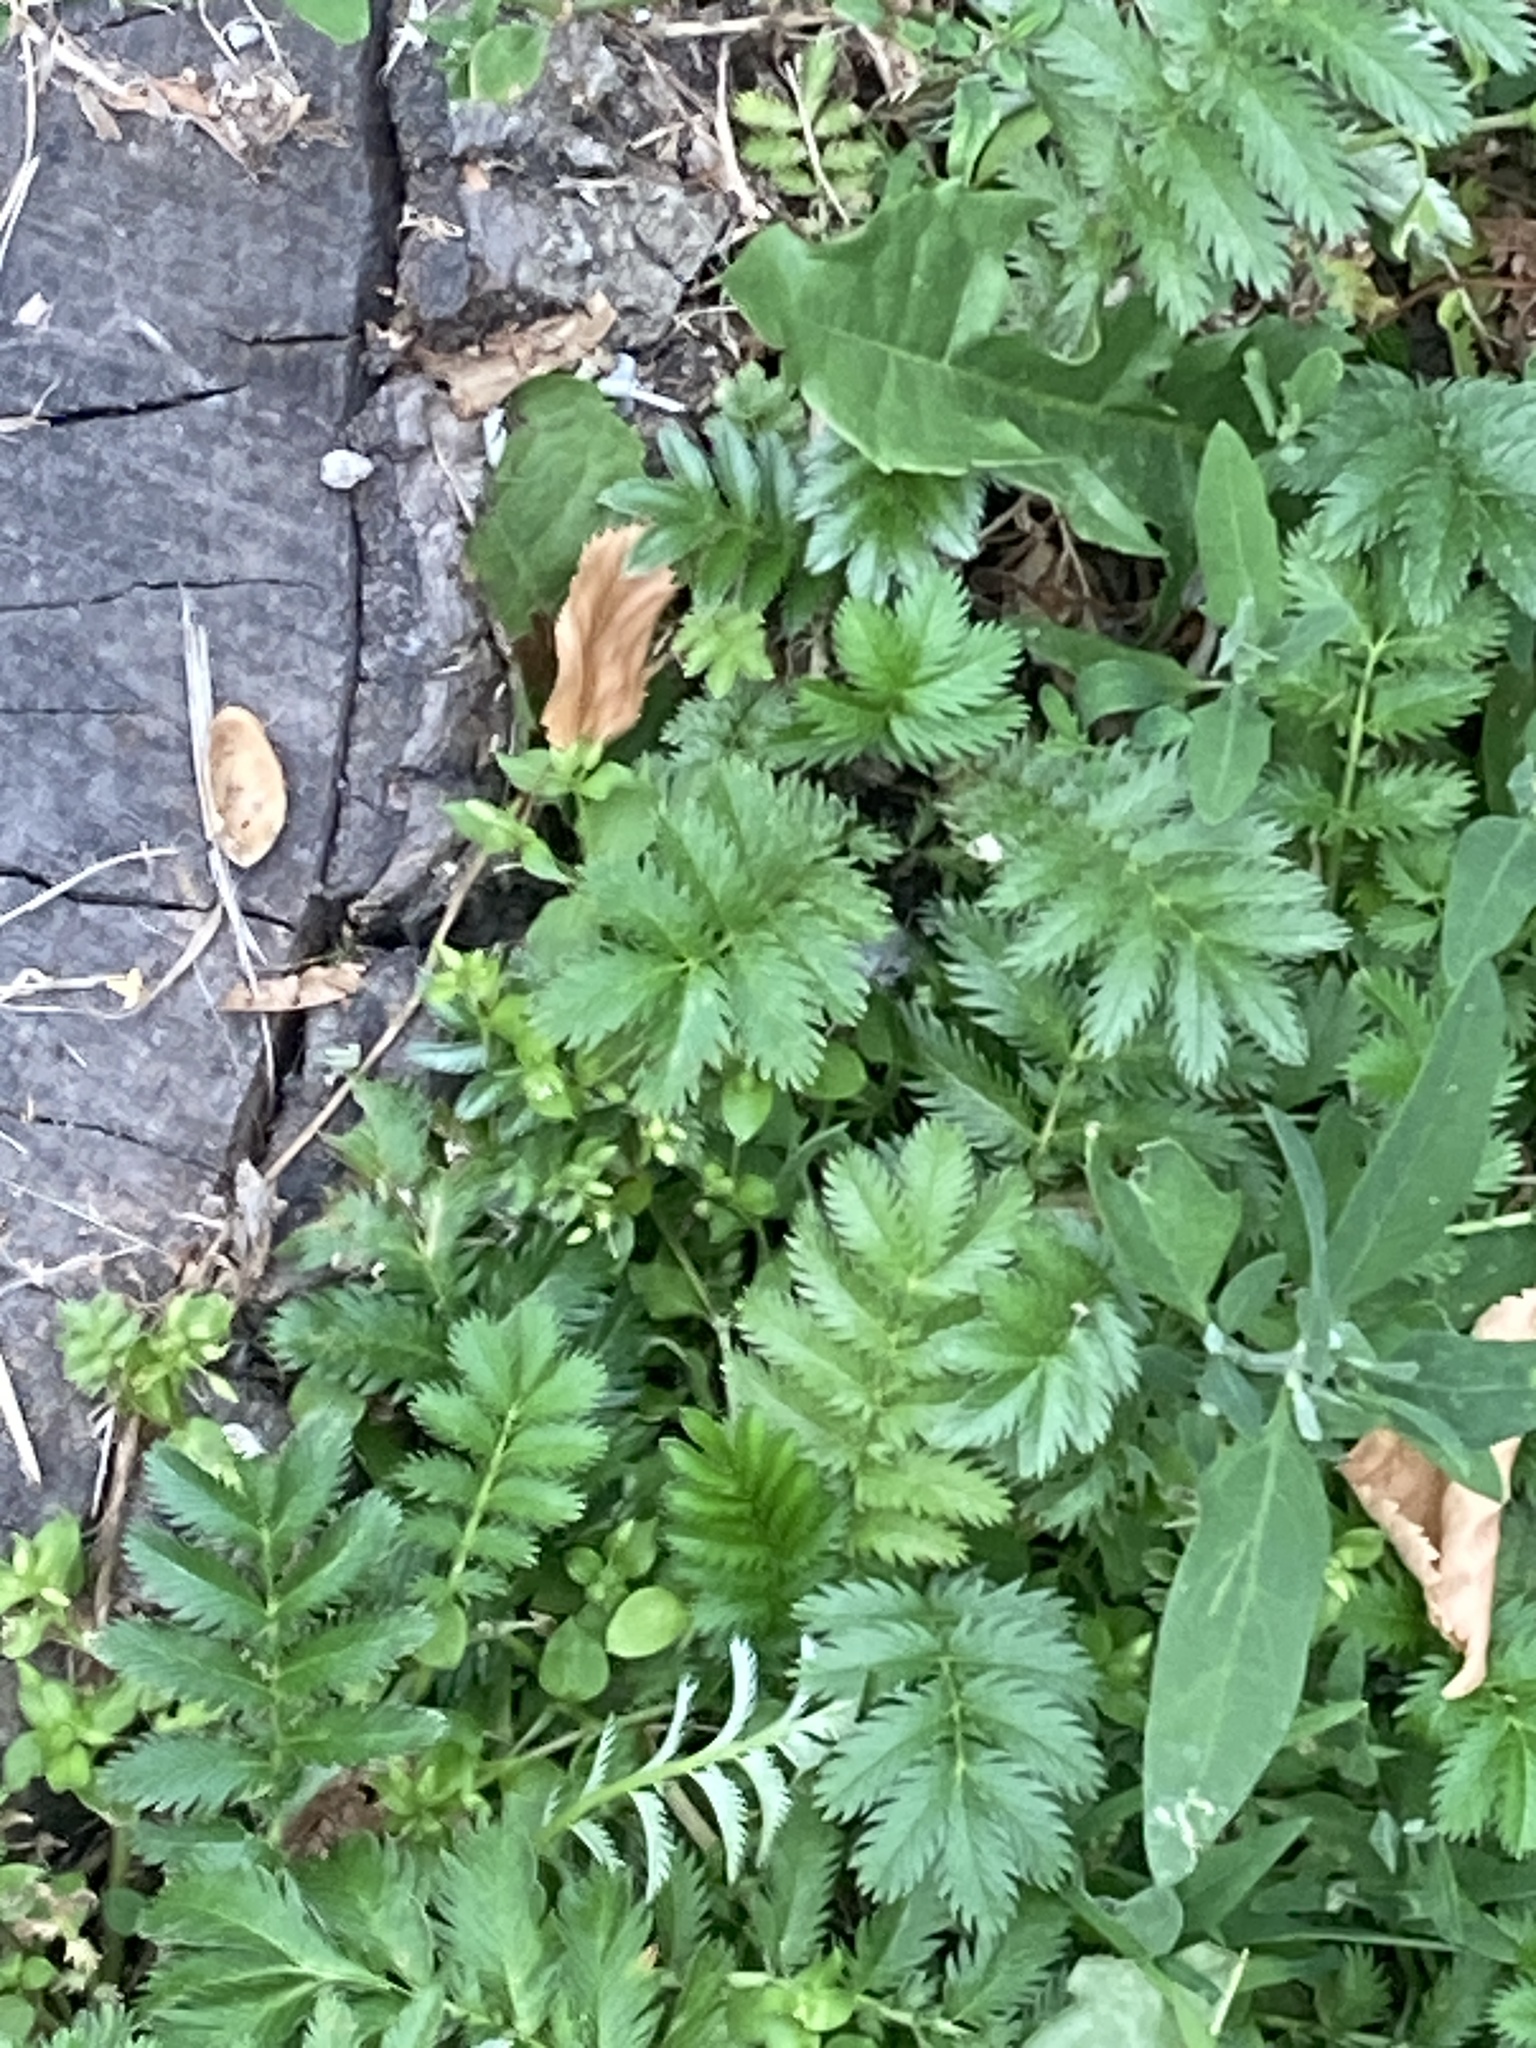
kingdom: Plantae
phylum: Tracheophyta
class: Magnoliopsida
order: Rosales
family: Rosaceae
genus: Argentina
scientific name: Argentina anserina
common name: Common silverweed
